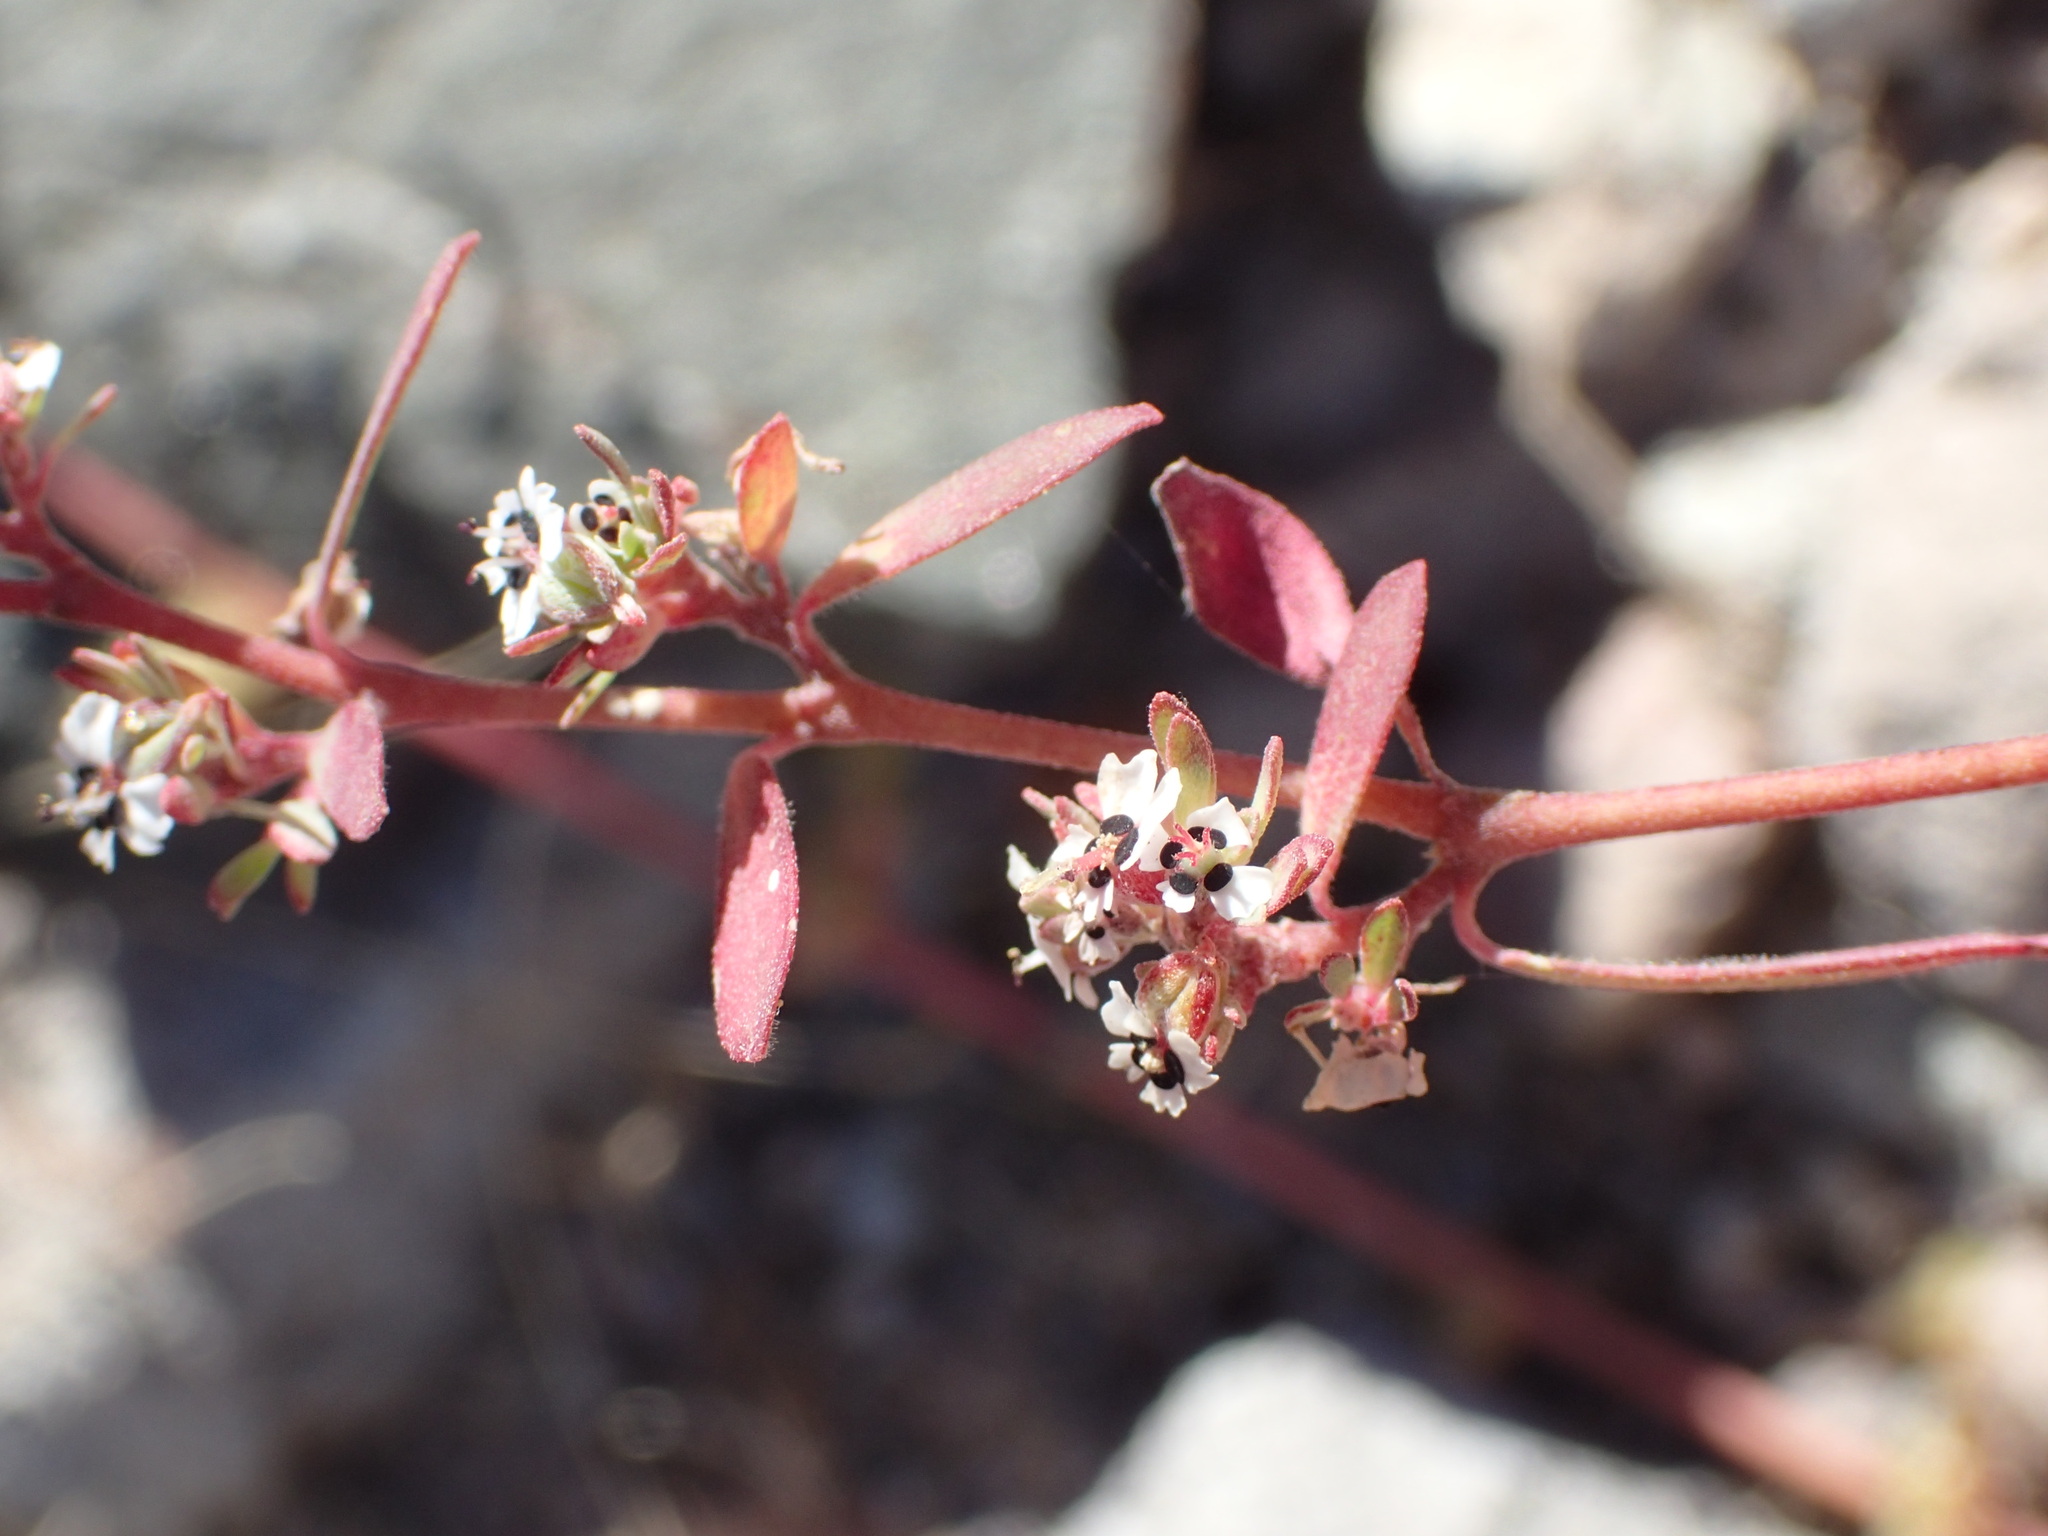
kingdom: Plantae
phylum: Tracheophyta
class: Magnoliopsida
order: Malpighiales
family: Euphorbiaceae
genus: Euphorbia
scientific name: Euphorbia pediculifera
